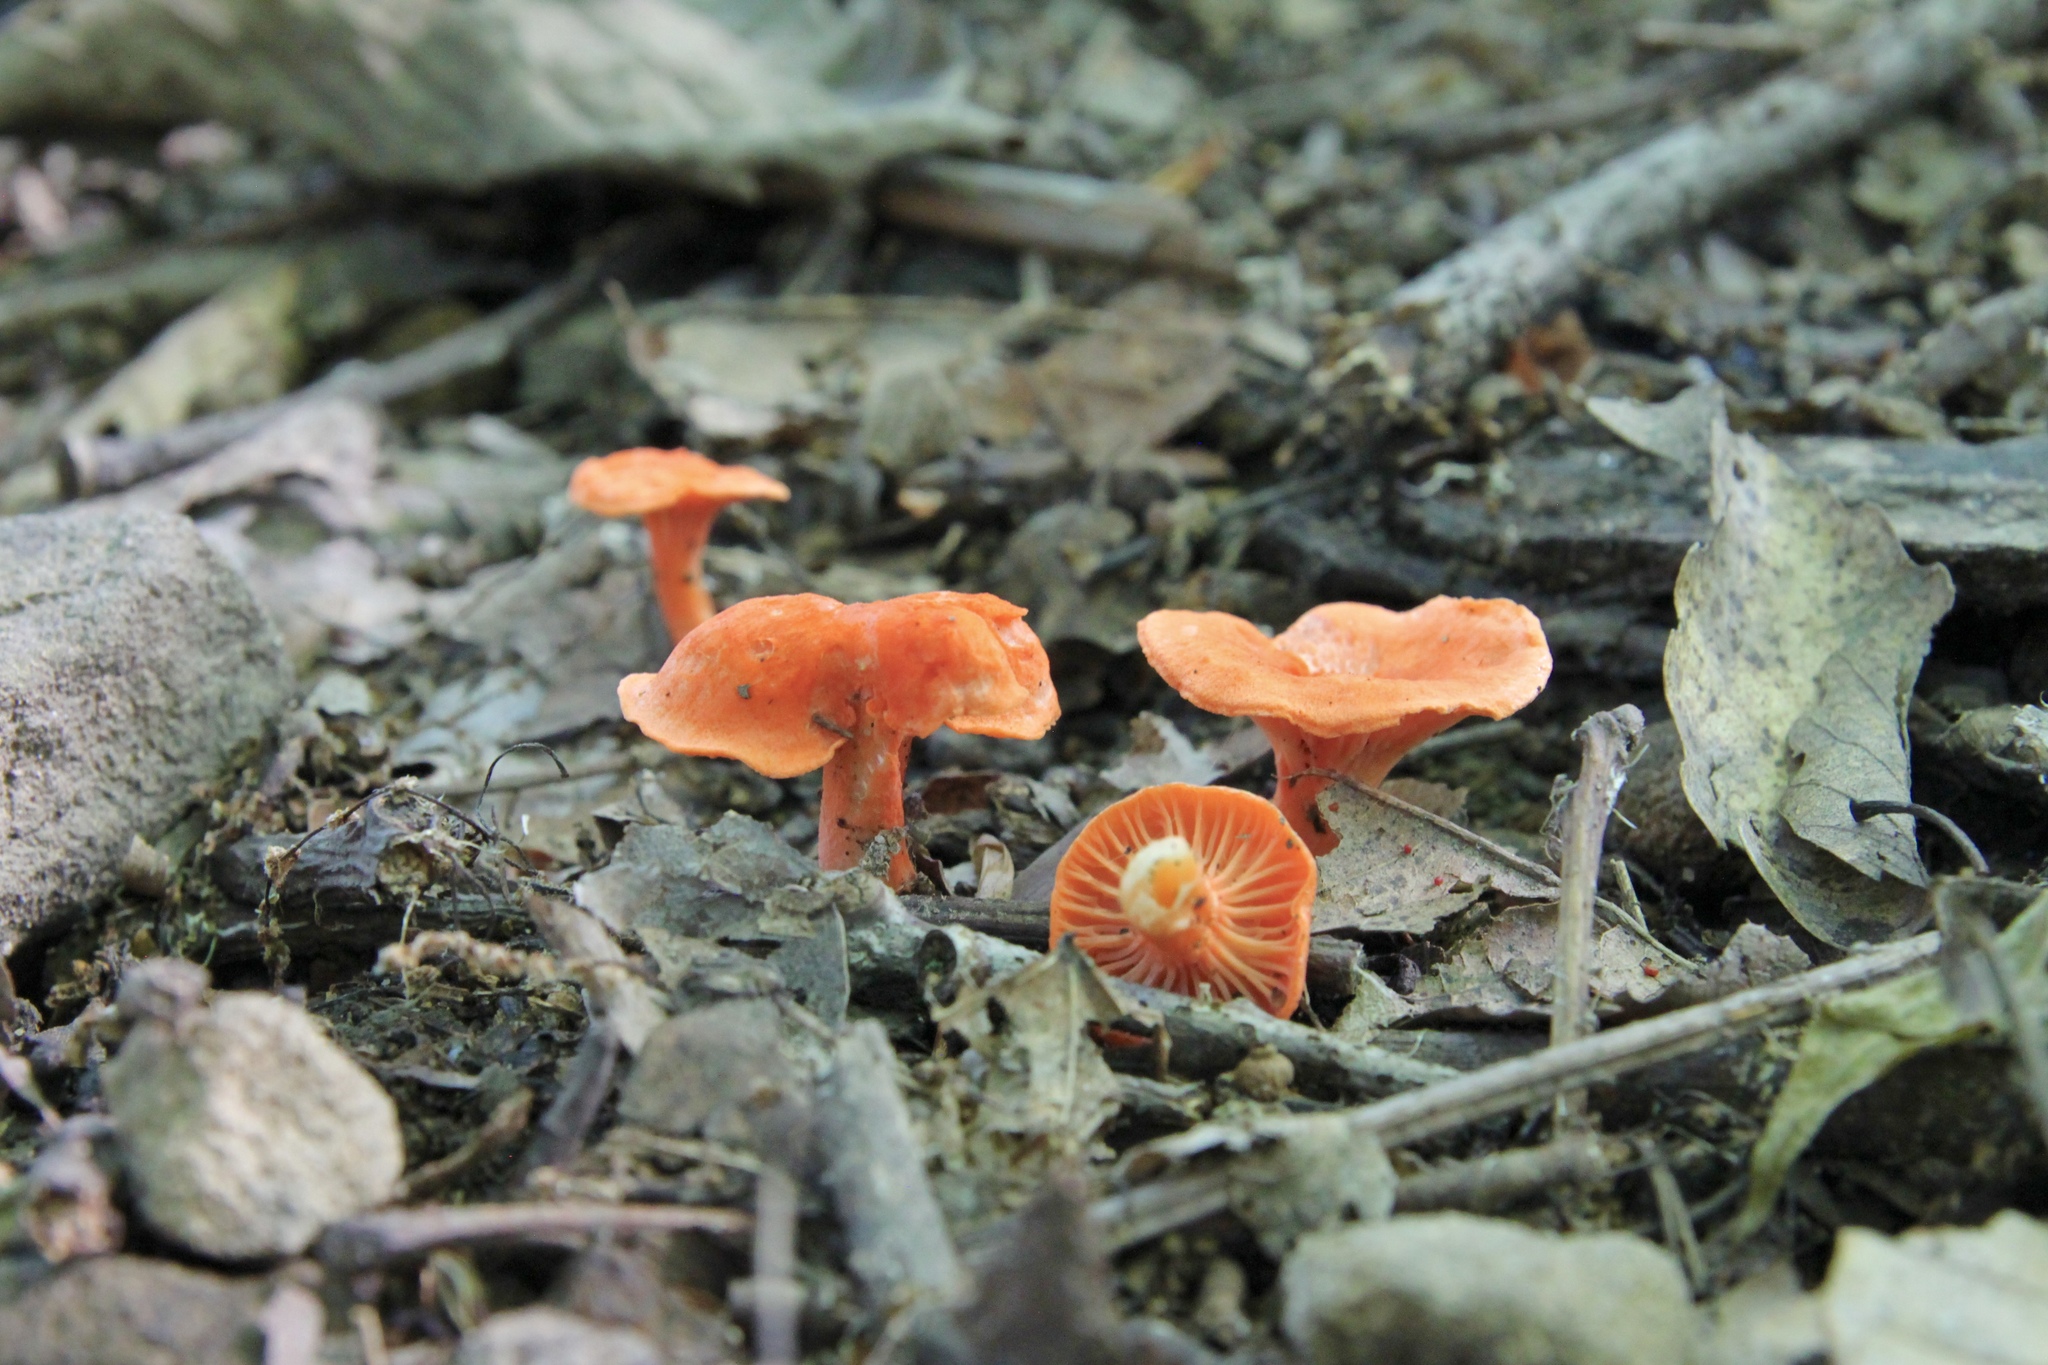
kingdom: Fungi
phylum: Basidiomycota
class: Agaricomycetes
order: Cantharellales
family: Hydnaceae
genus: Cantharellus
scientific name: Cantharellus cinnabarinus
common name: Cinnabar chanterelle
